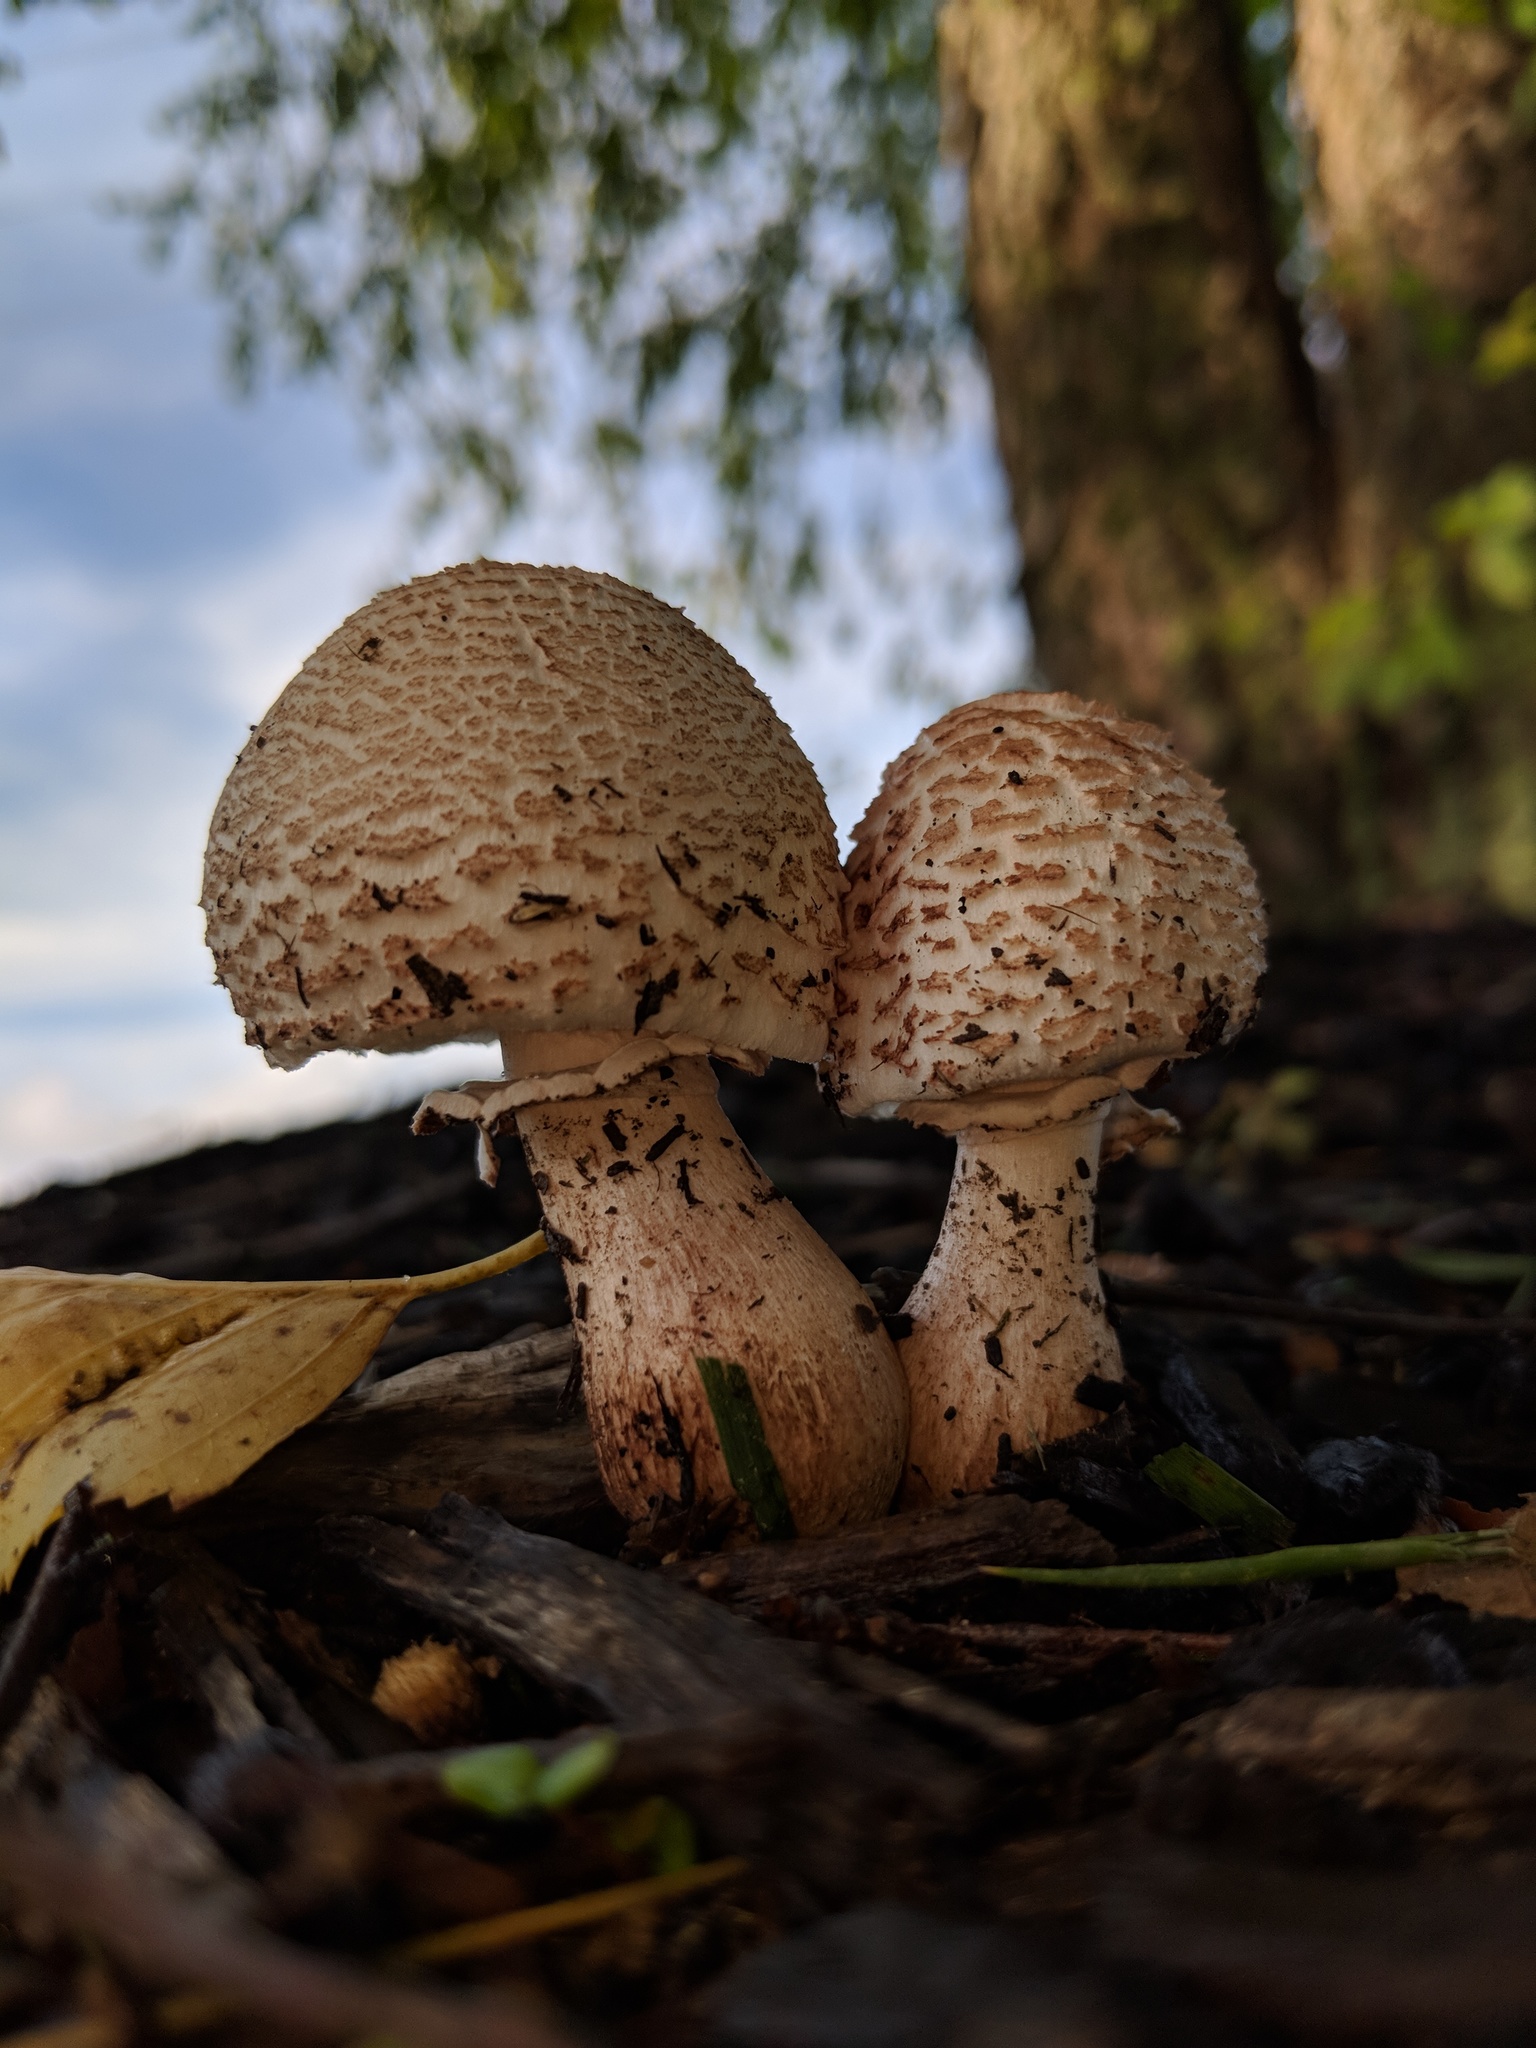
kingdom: Fungi
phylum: Basidiomycota
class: Agaricomycetes
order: Agaricales
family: Agaricaceae
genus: Leucoagaricus
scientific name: Leucoagaricus americanus
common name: Reddening lepiota
